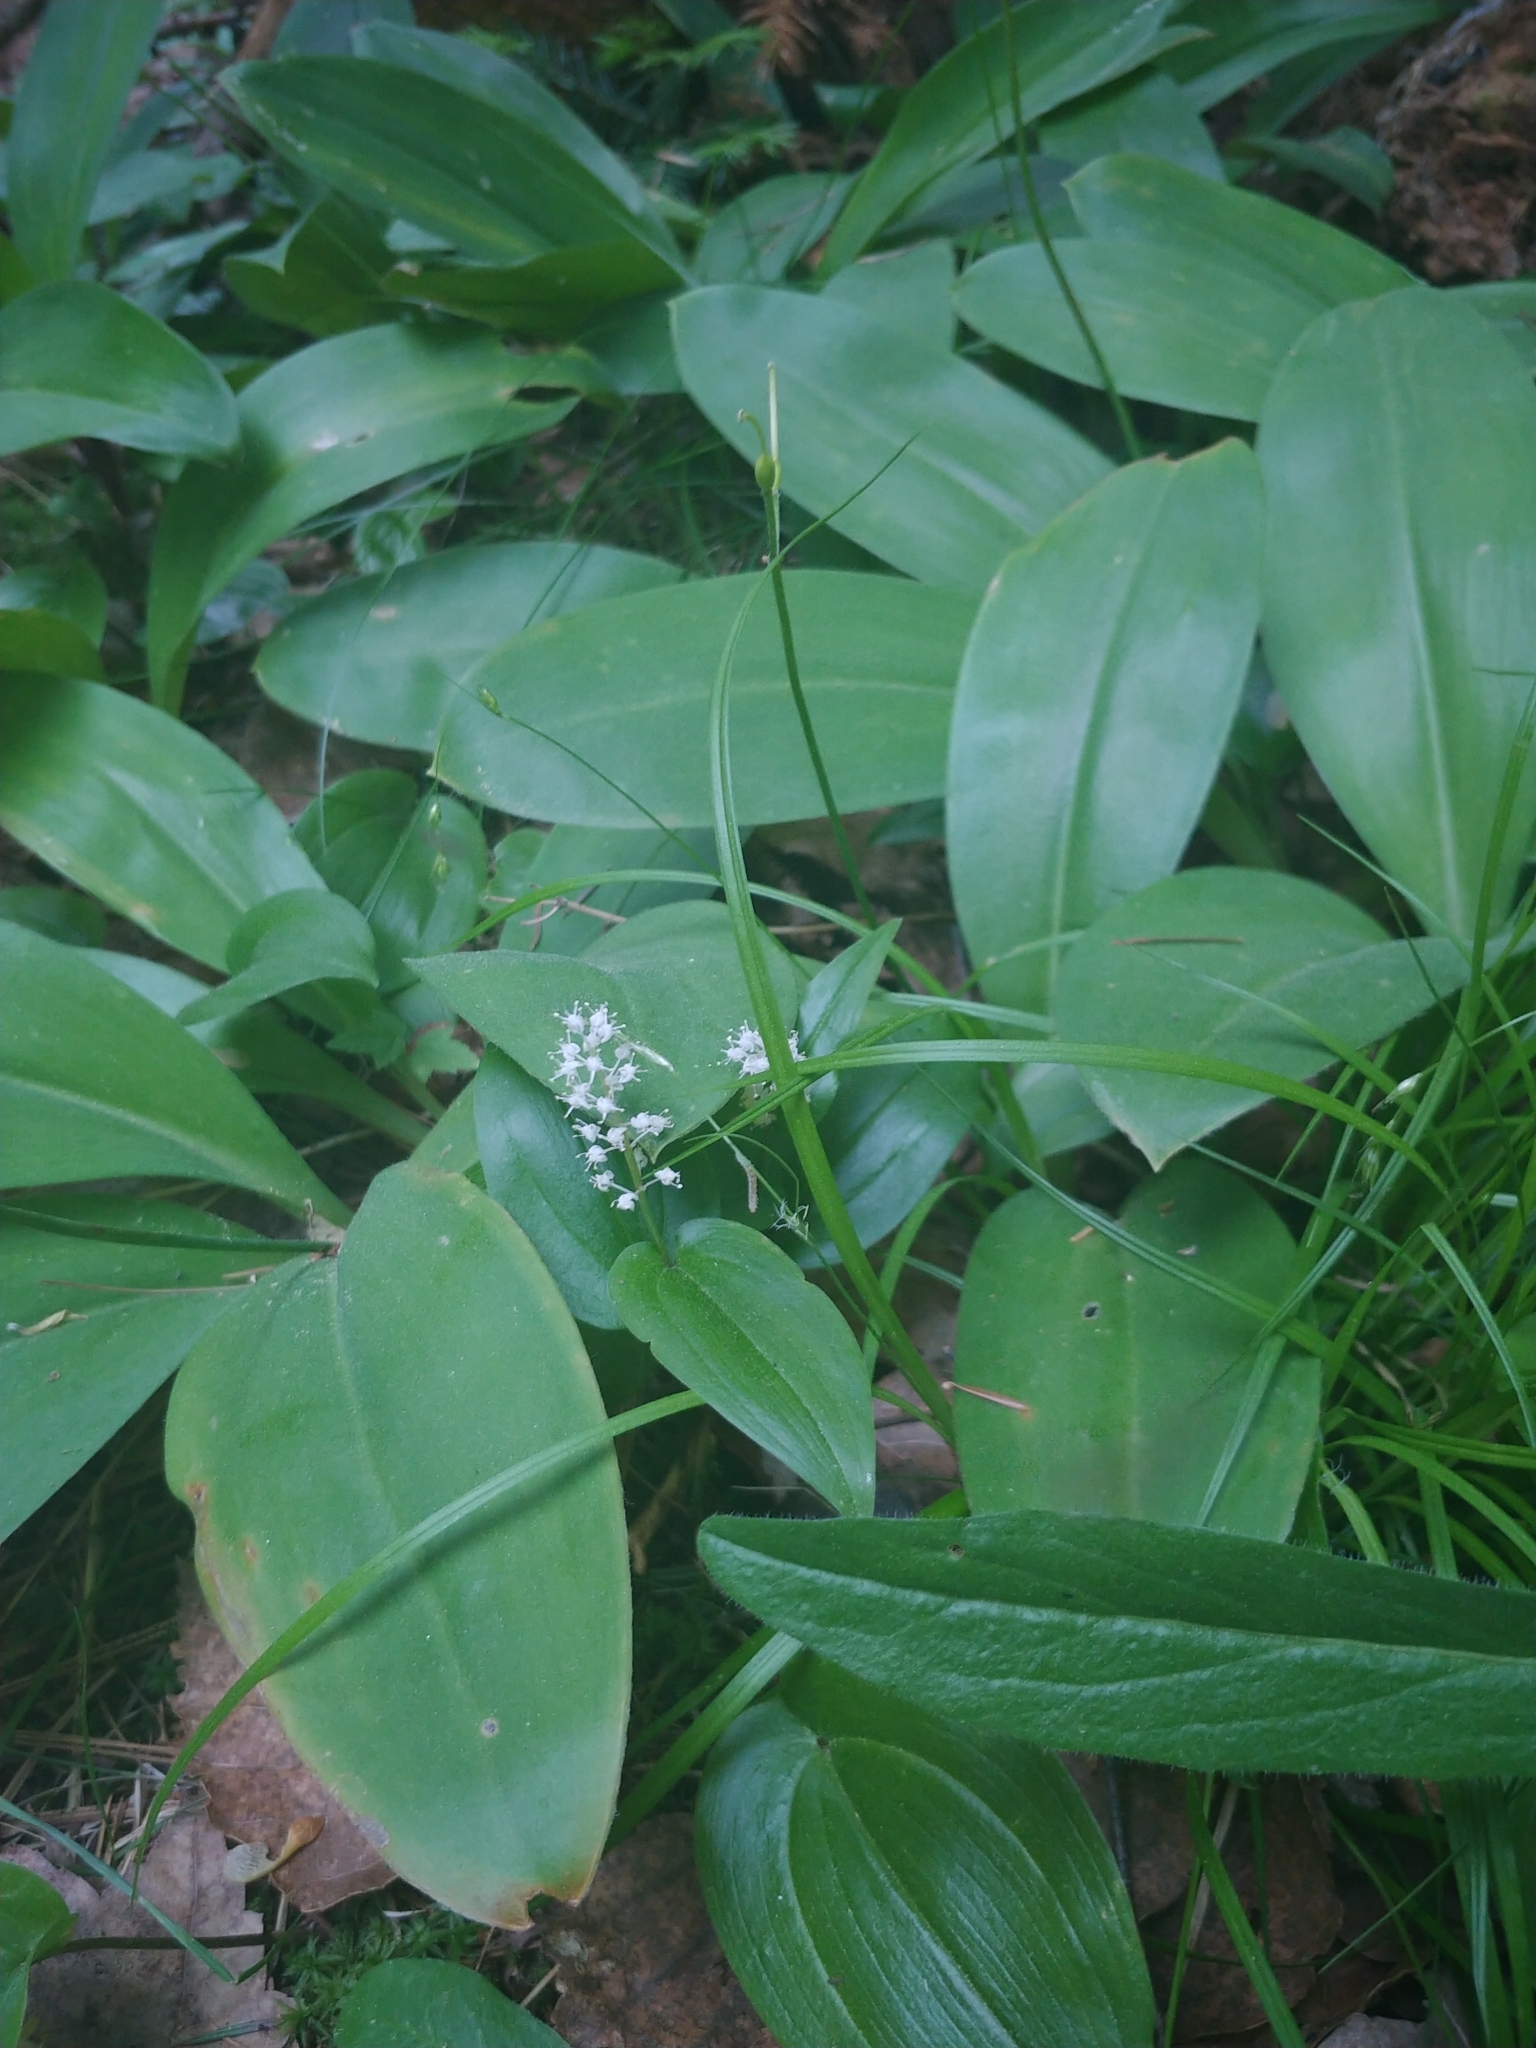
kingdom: Plantae
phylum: Tracheophyta
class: Liliopsida
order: Asparagales
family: Asparagaceae
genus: Maianthemum
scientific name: Maianthemum canadense
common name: False lily-of-the-valley
